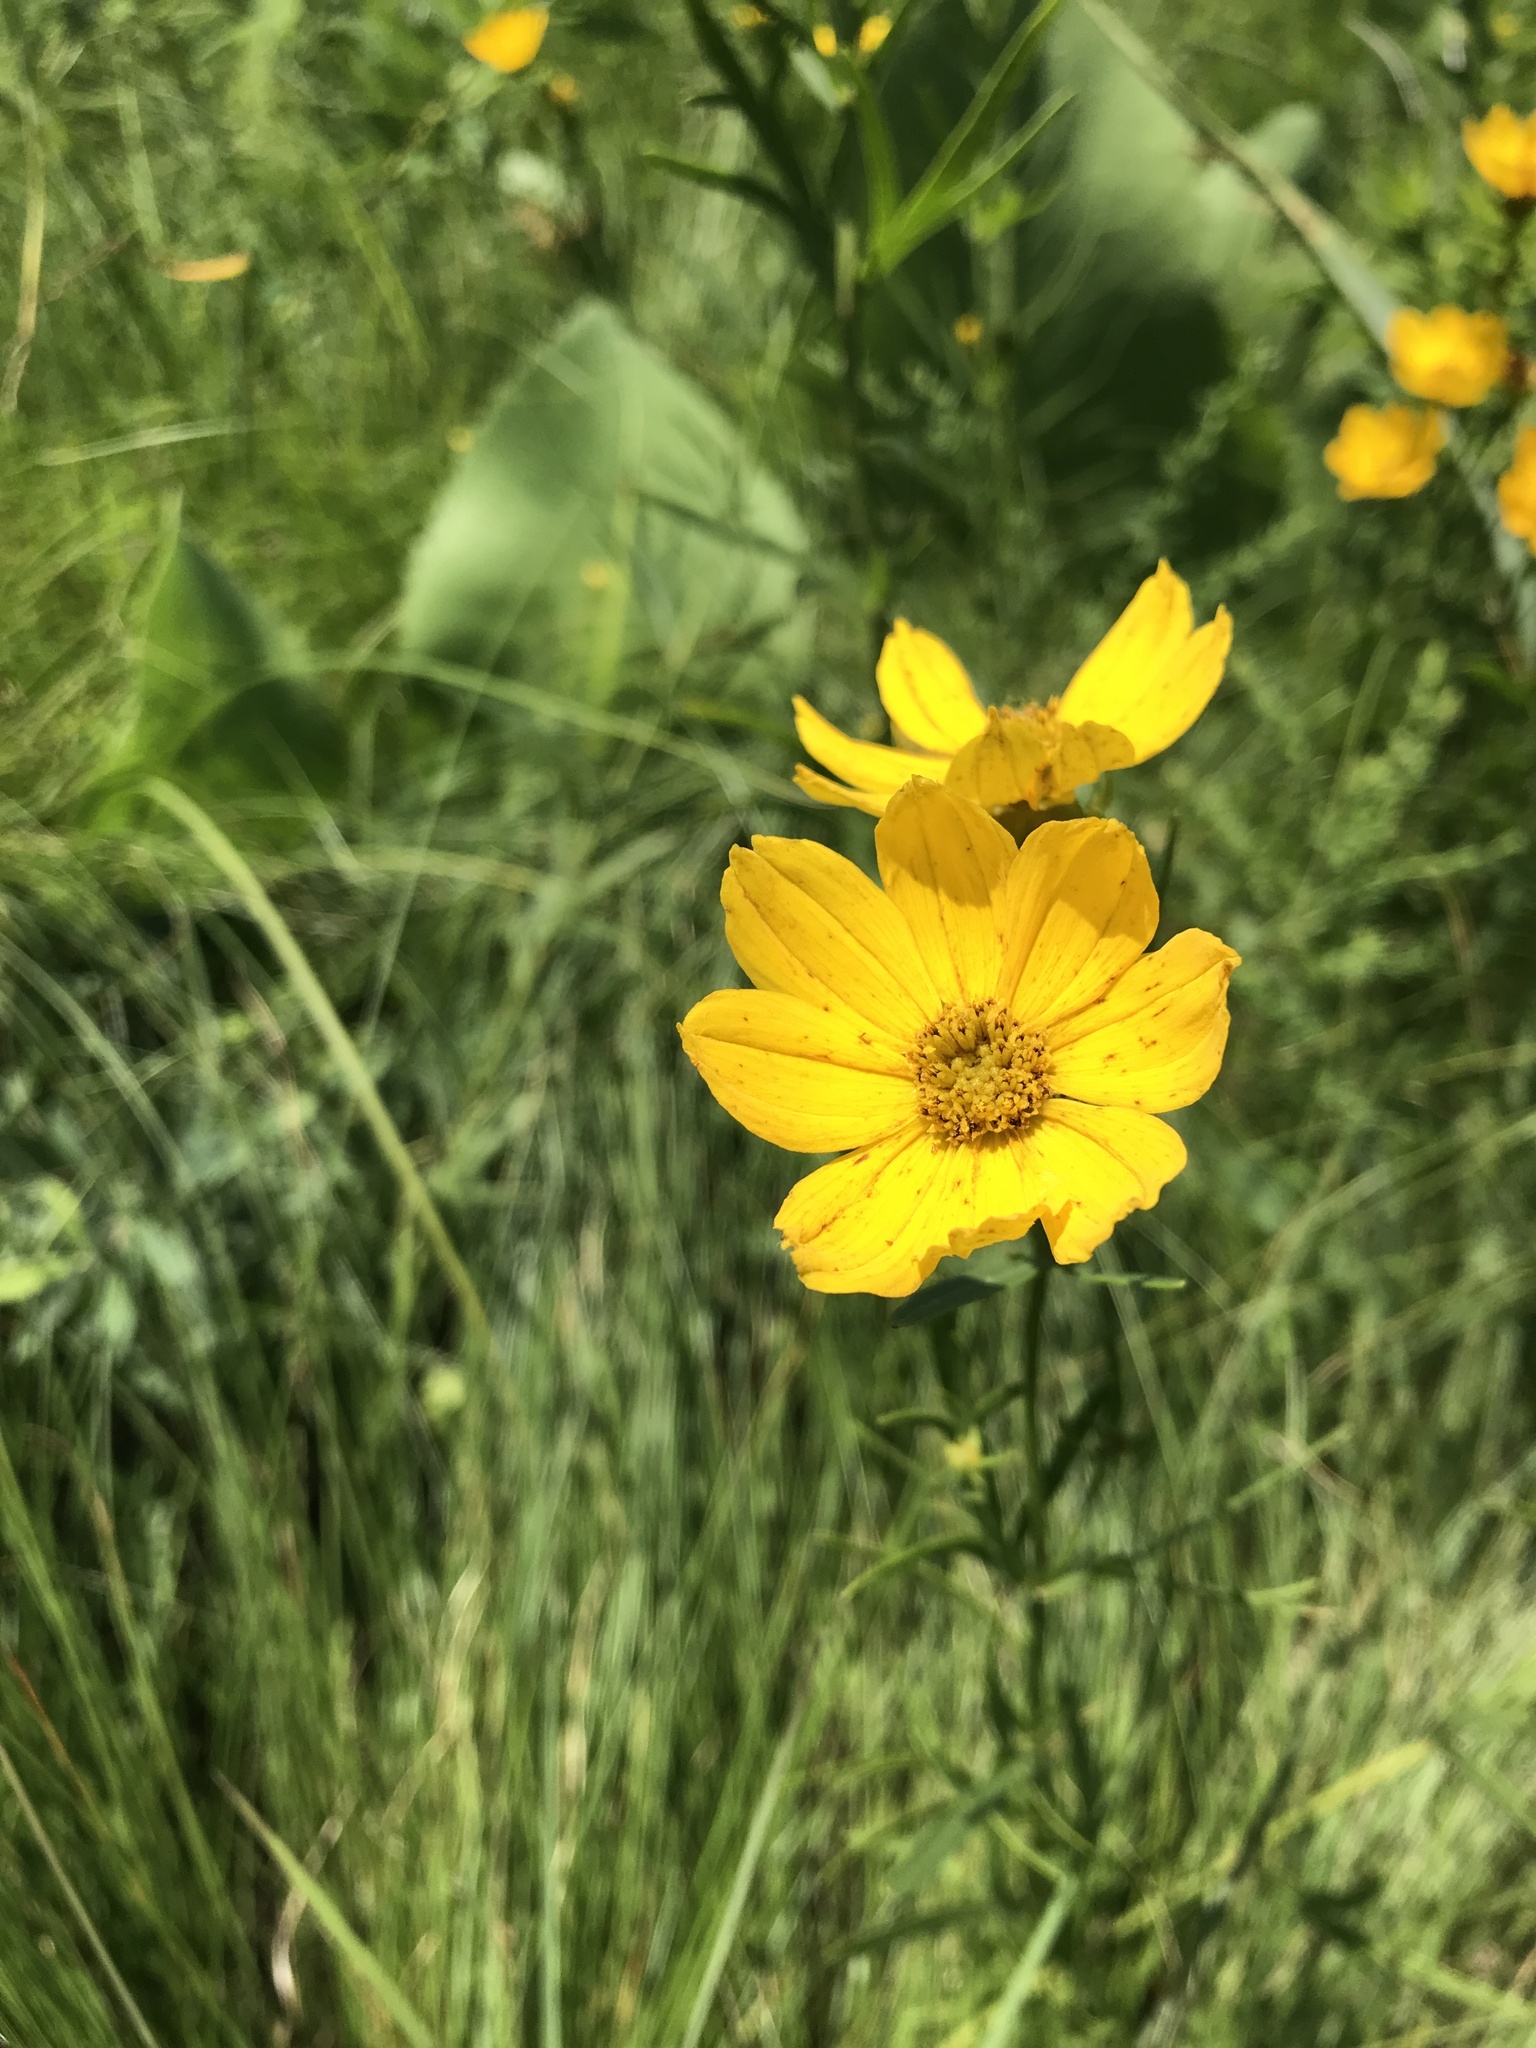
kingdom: Plantae
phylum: Tracheophyta
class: Magnoliopsida
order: Asterales
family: Asteraceae
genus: Coreopsis
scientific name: Coreopsis palmata
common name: Prairie coreopsis
